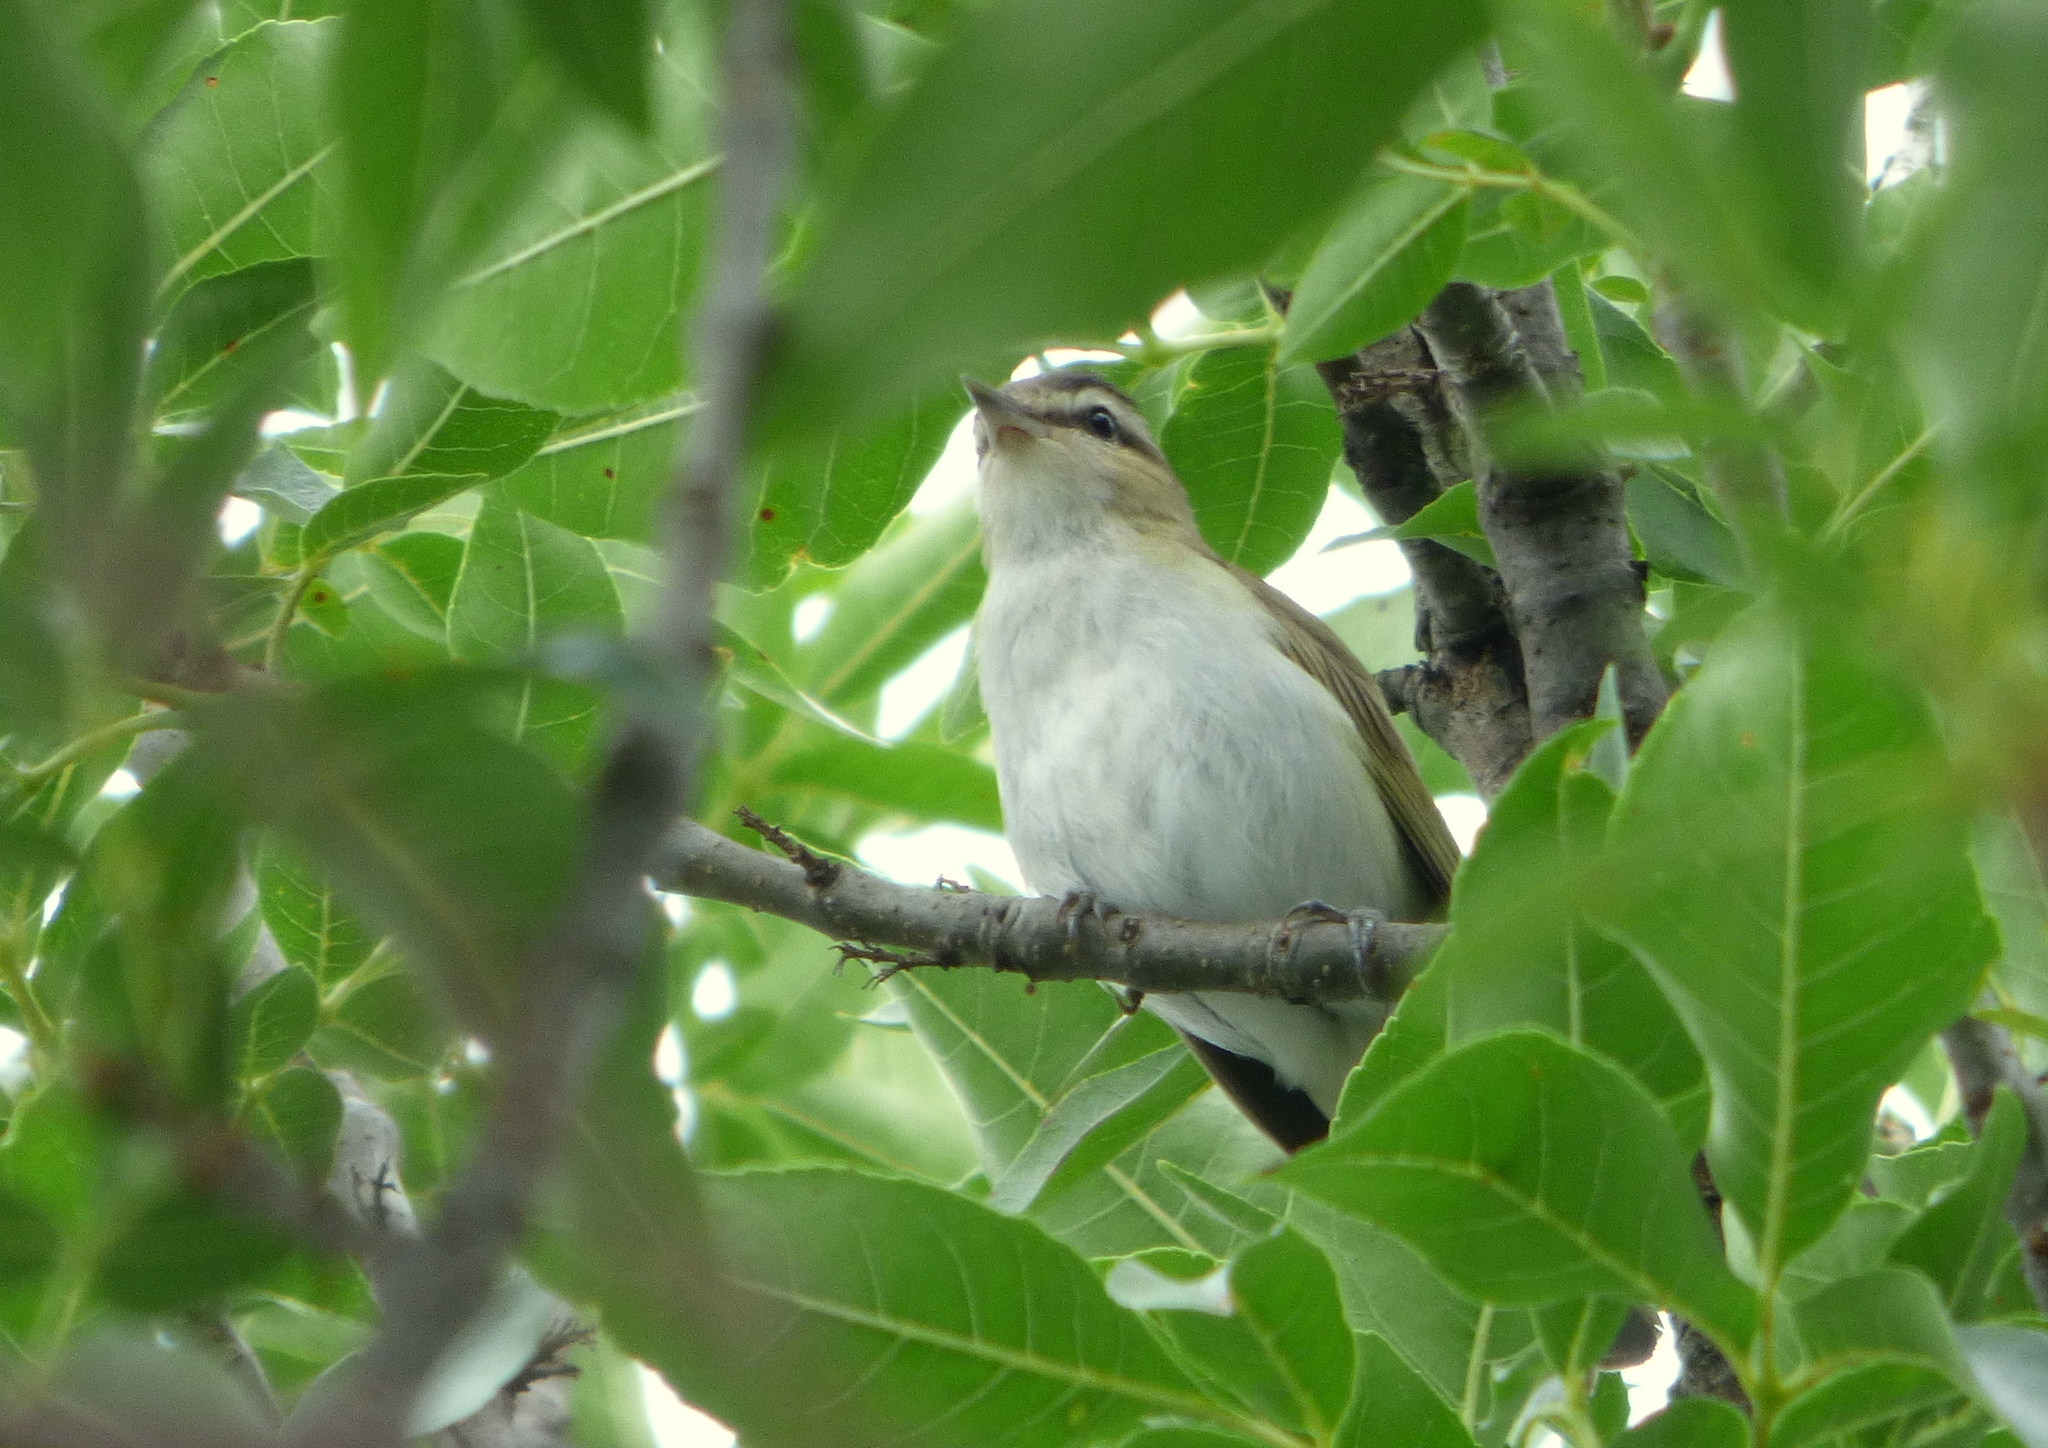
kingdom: Animalia
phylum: Chordata
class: Aves
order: Passeriformes
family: Vireonidae
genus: Vireo
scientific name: Vireo olivaceus
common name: Red-eyed vireo
